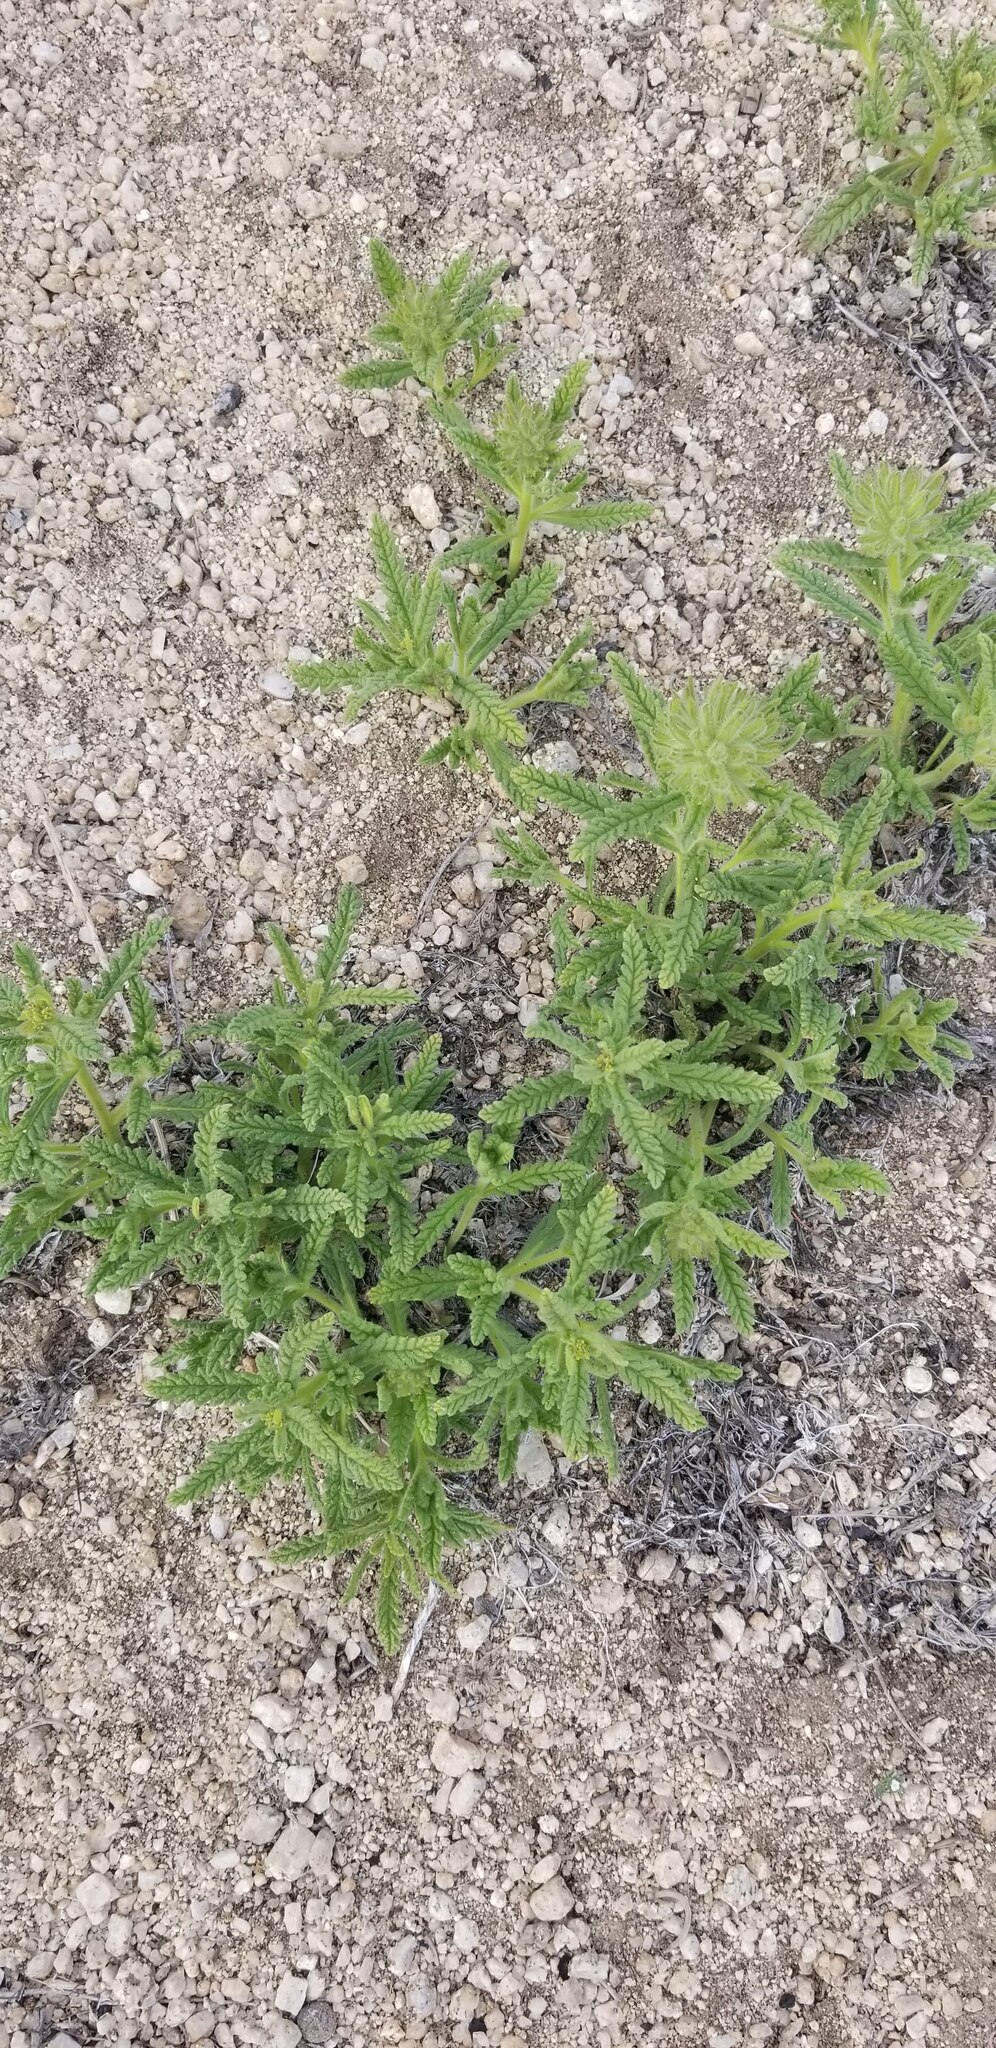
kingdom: Plantae
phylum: Tracheophyta
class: Magnoliopsida
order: Boraginales
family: Namaceae
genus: Nama
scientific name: Nama rothrockii
